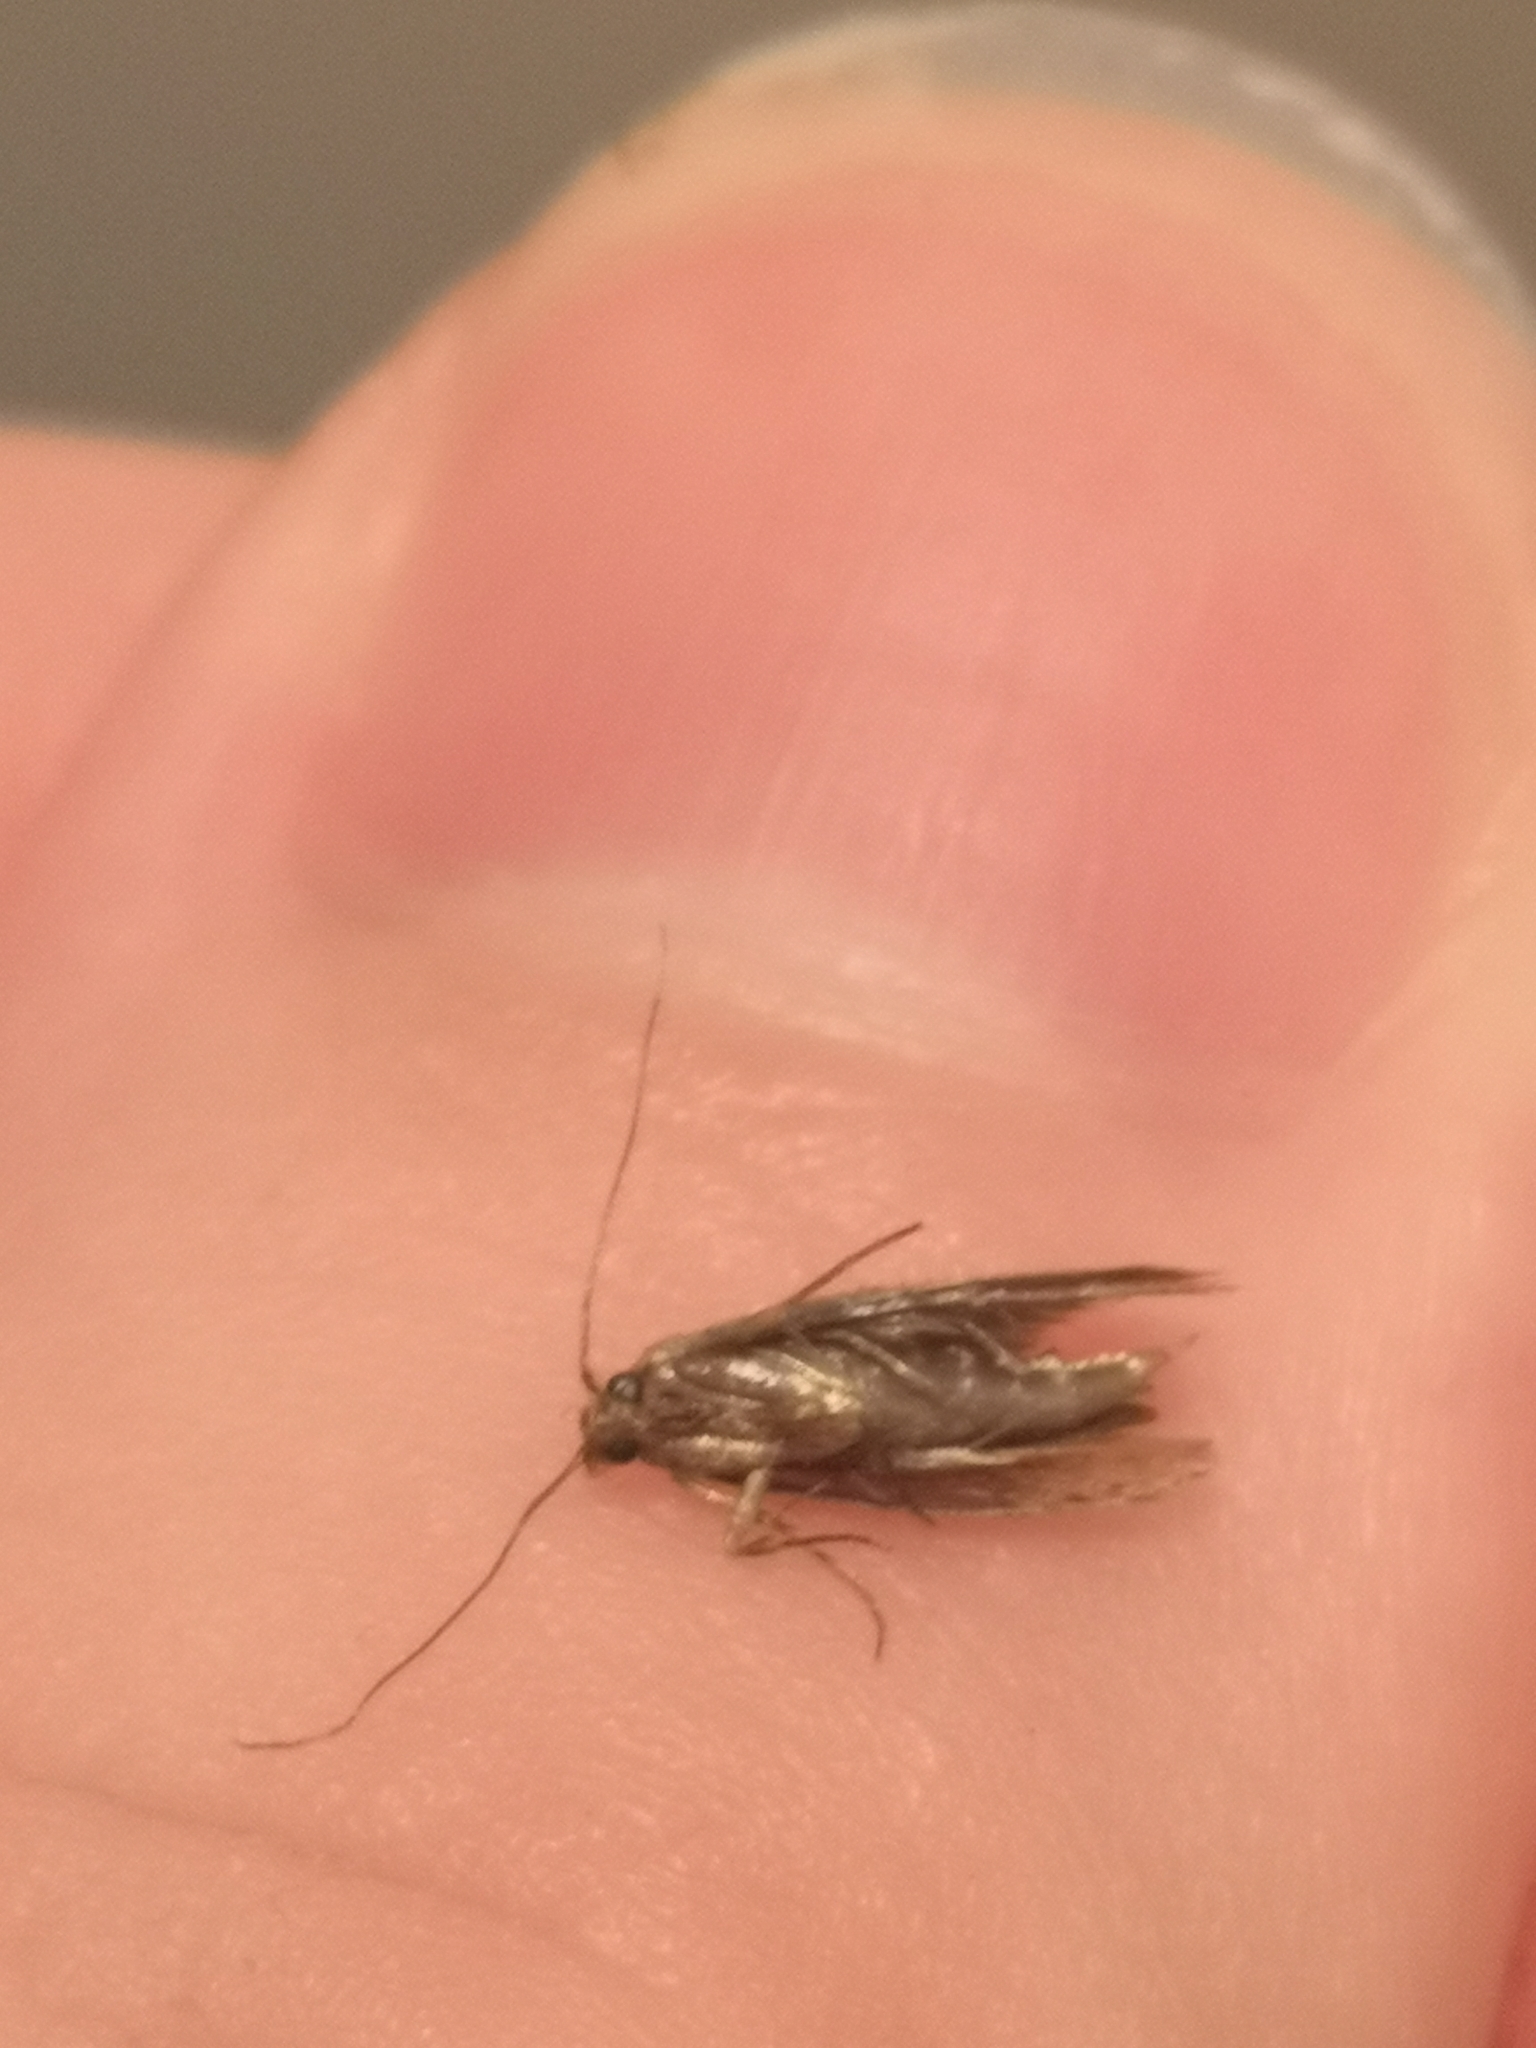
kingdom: Animalia
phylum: Arthropoda
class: Insecta
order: Lepidoptera
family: Tineidae
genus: Tineola
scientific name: Tineola bisselliella
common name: Webbing clothes moth
